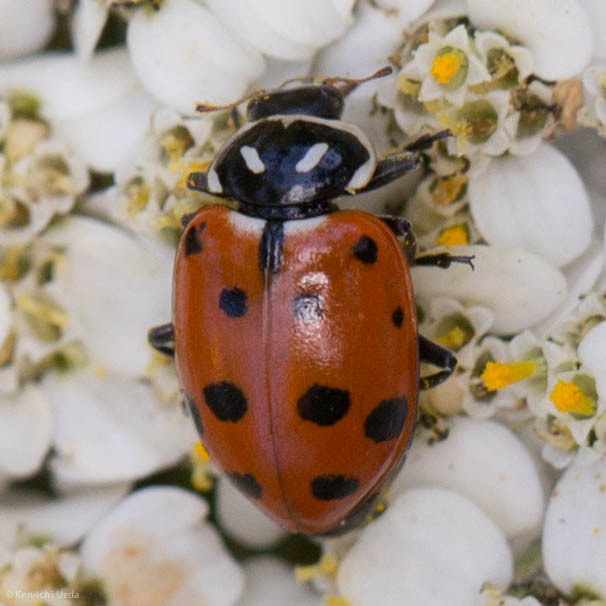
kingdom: Animalia
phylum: Arthropoda
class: Insecta
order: Coleoptera
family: Coccinellidae
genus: Hippodamia
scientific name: Hippodamia convergens
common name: Convergent lady beetle
